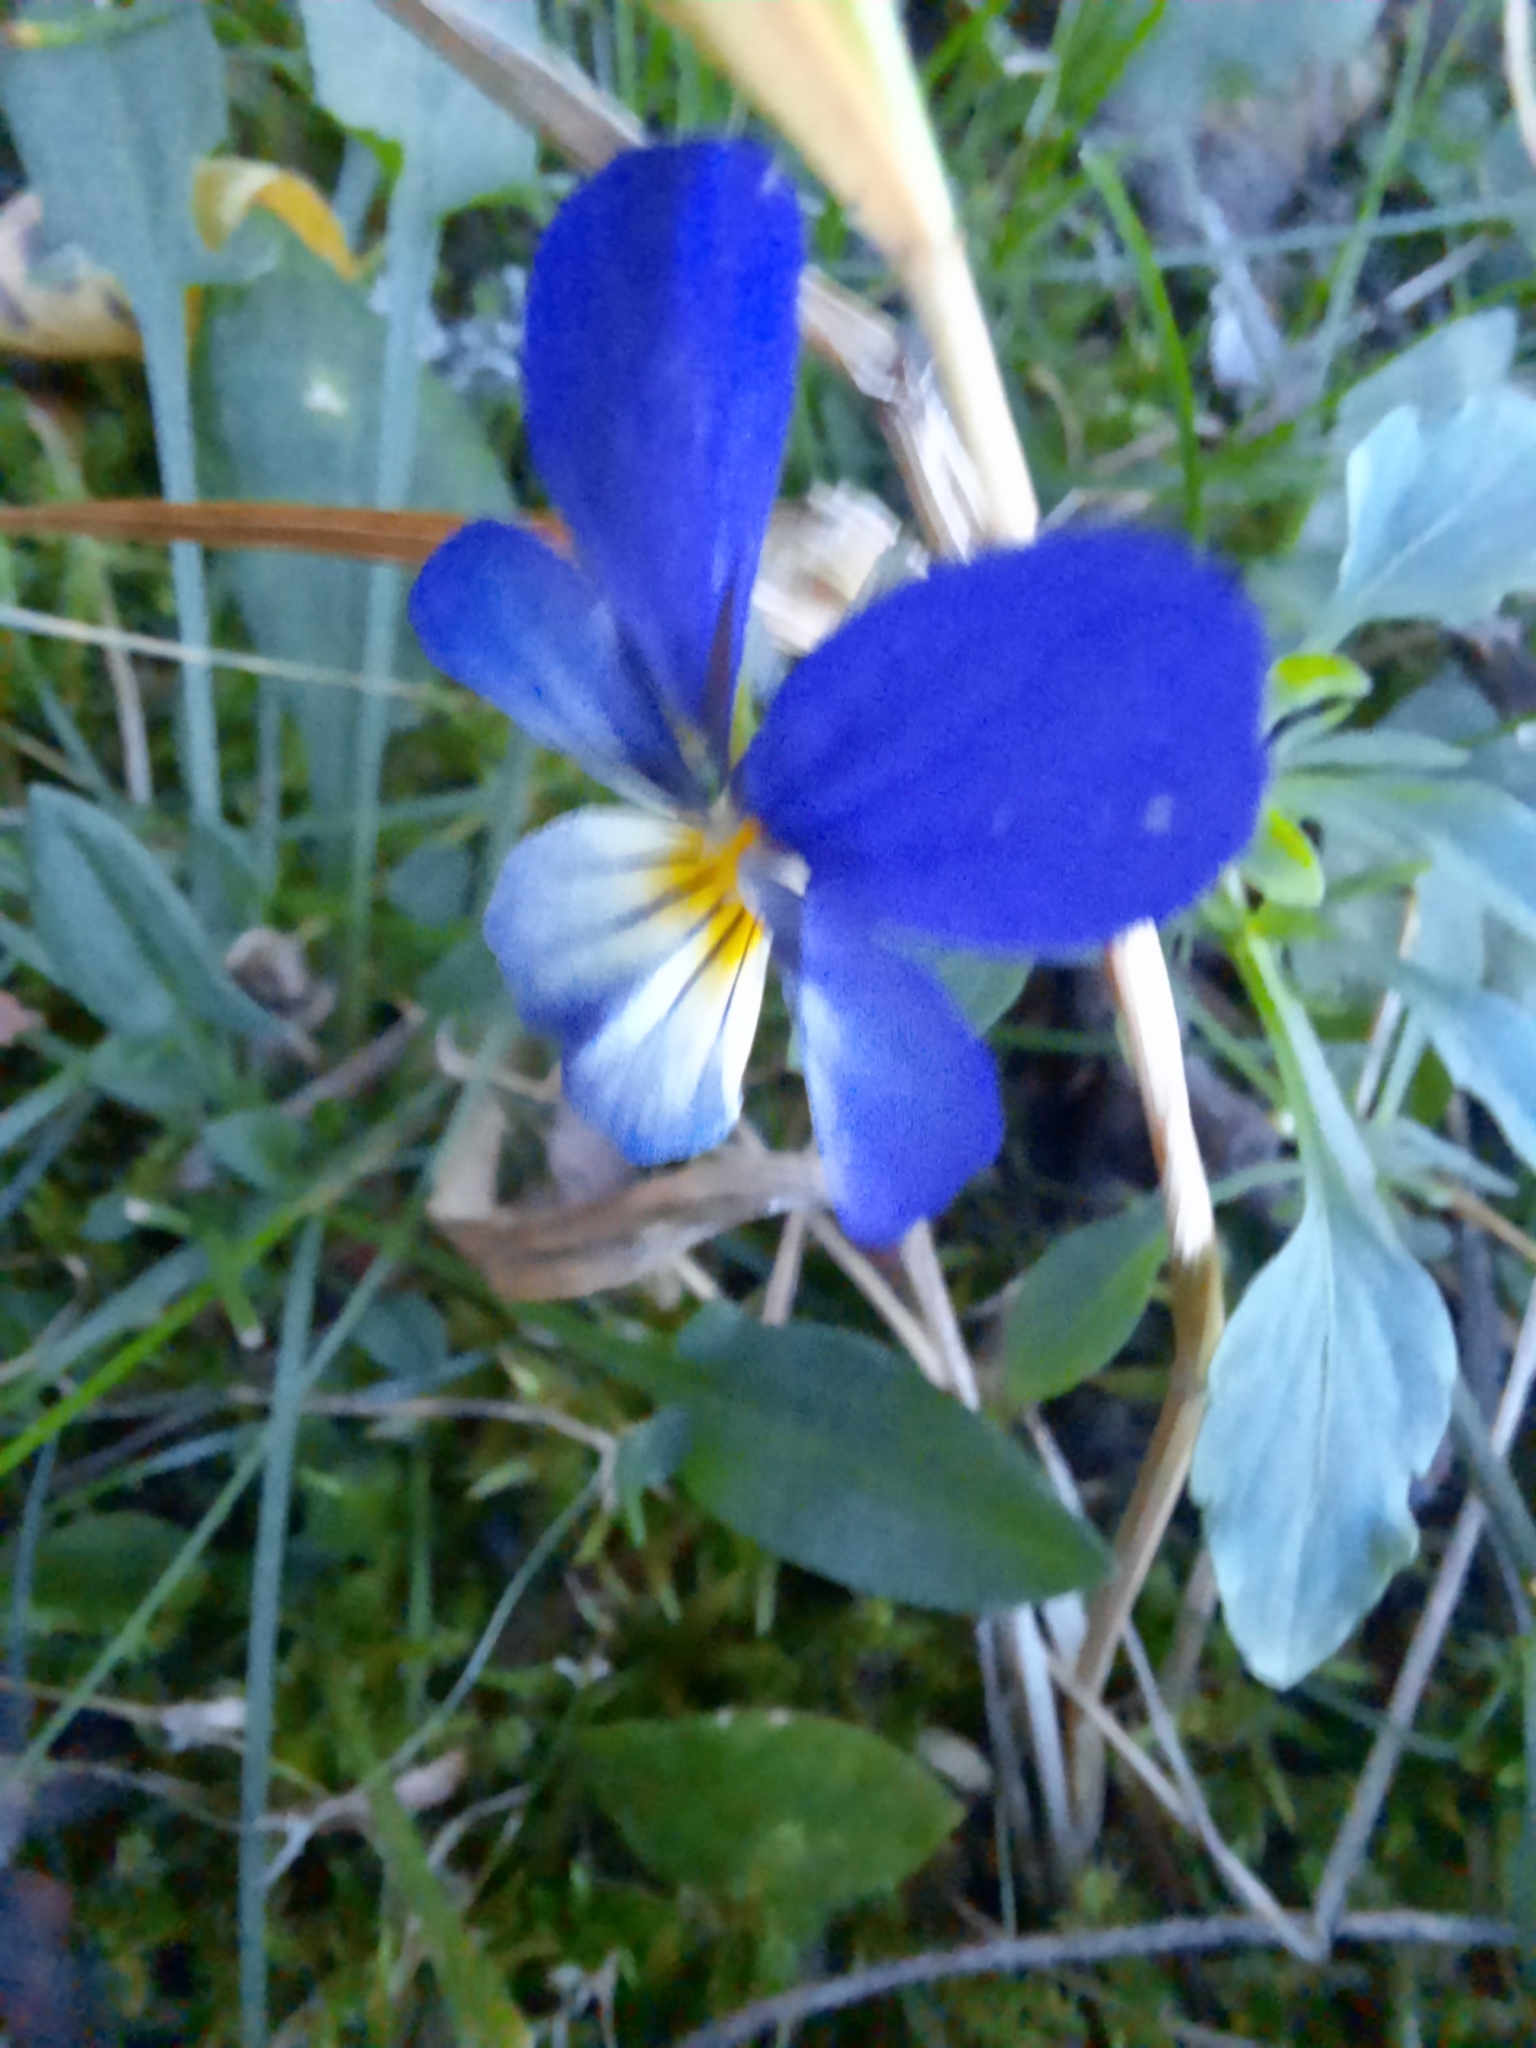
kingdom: Plantae
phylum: Tracheophyta
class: Magnoliopsida
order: Malpighiales
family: Violaceae
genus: Viola
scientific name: Viola tricolor
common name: Pansy
